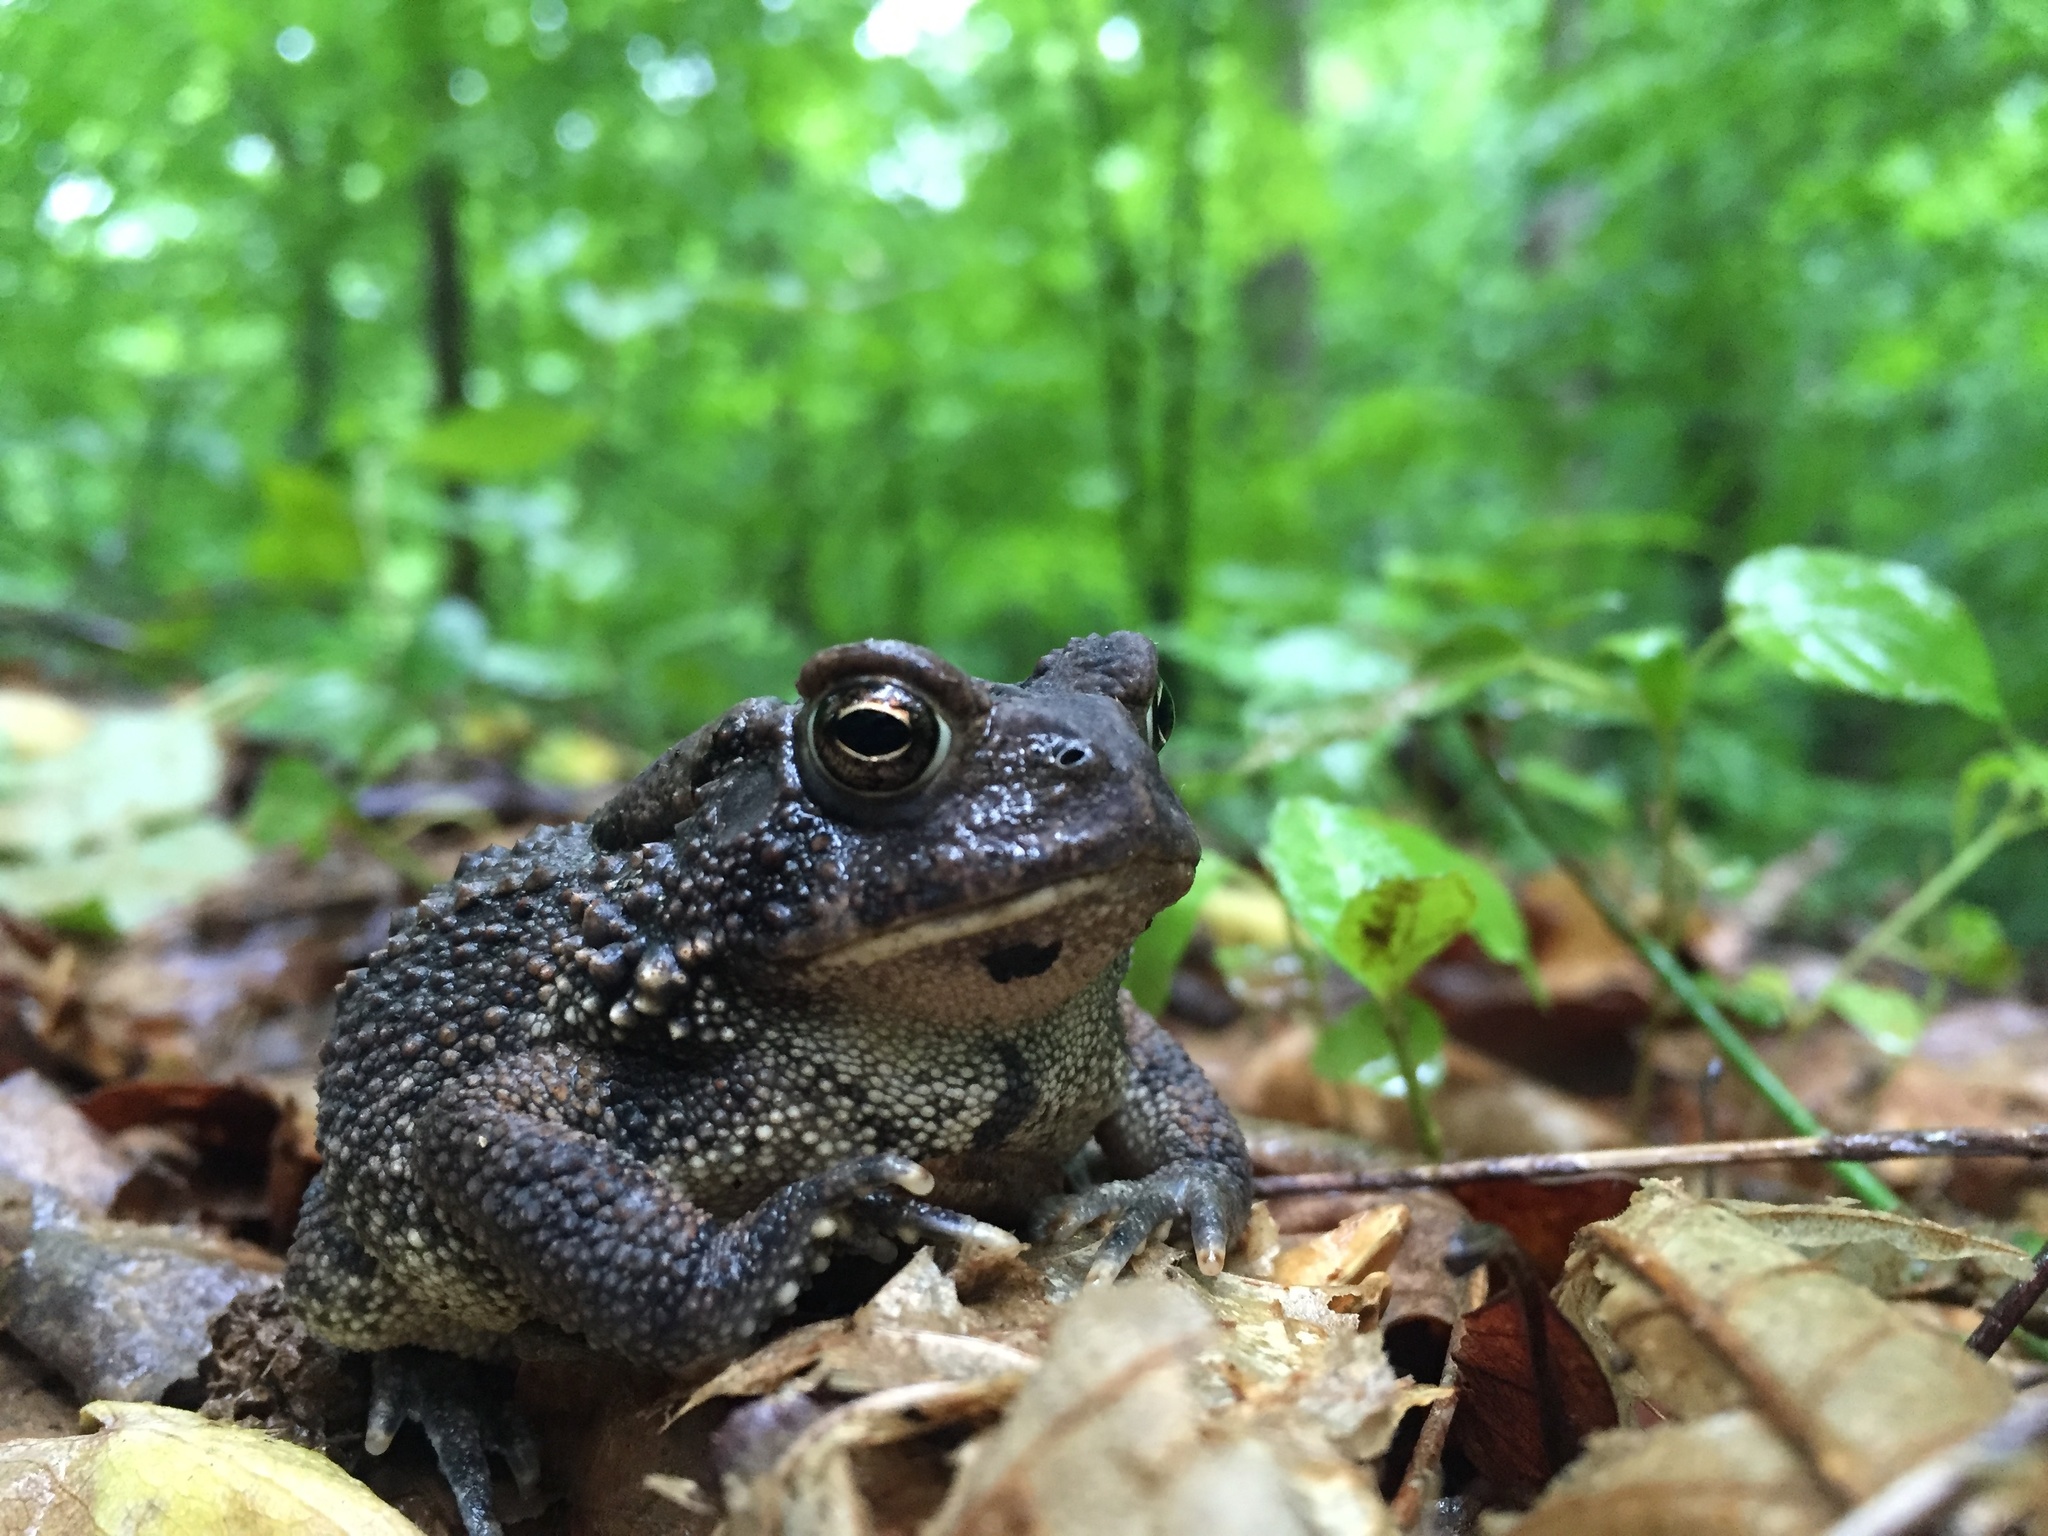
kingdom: Animalia
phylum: Chordata
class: Amphibia
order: Anura
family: Bufonidae
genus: Anaxyrus
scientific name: Anaxyrus americanus
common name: American toad
